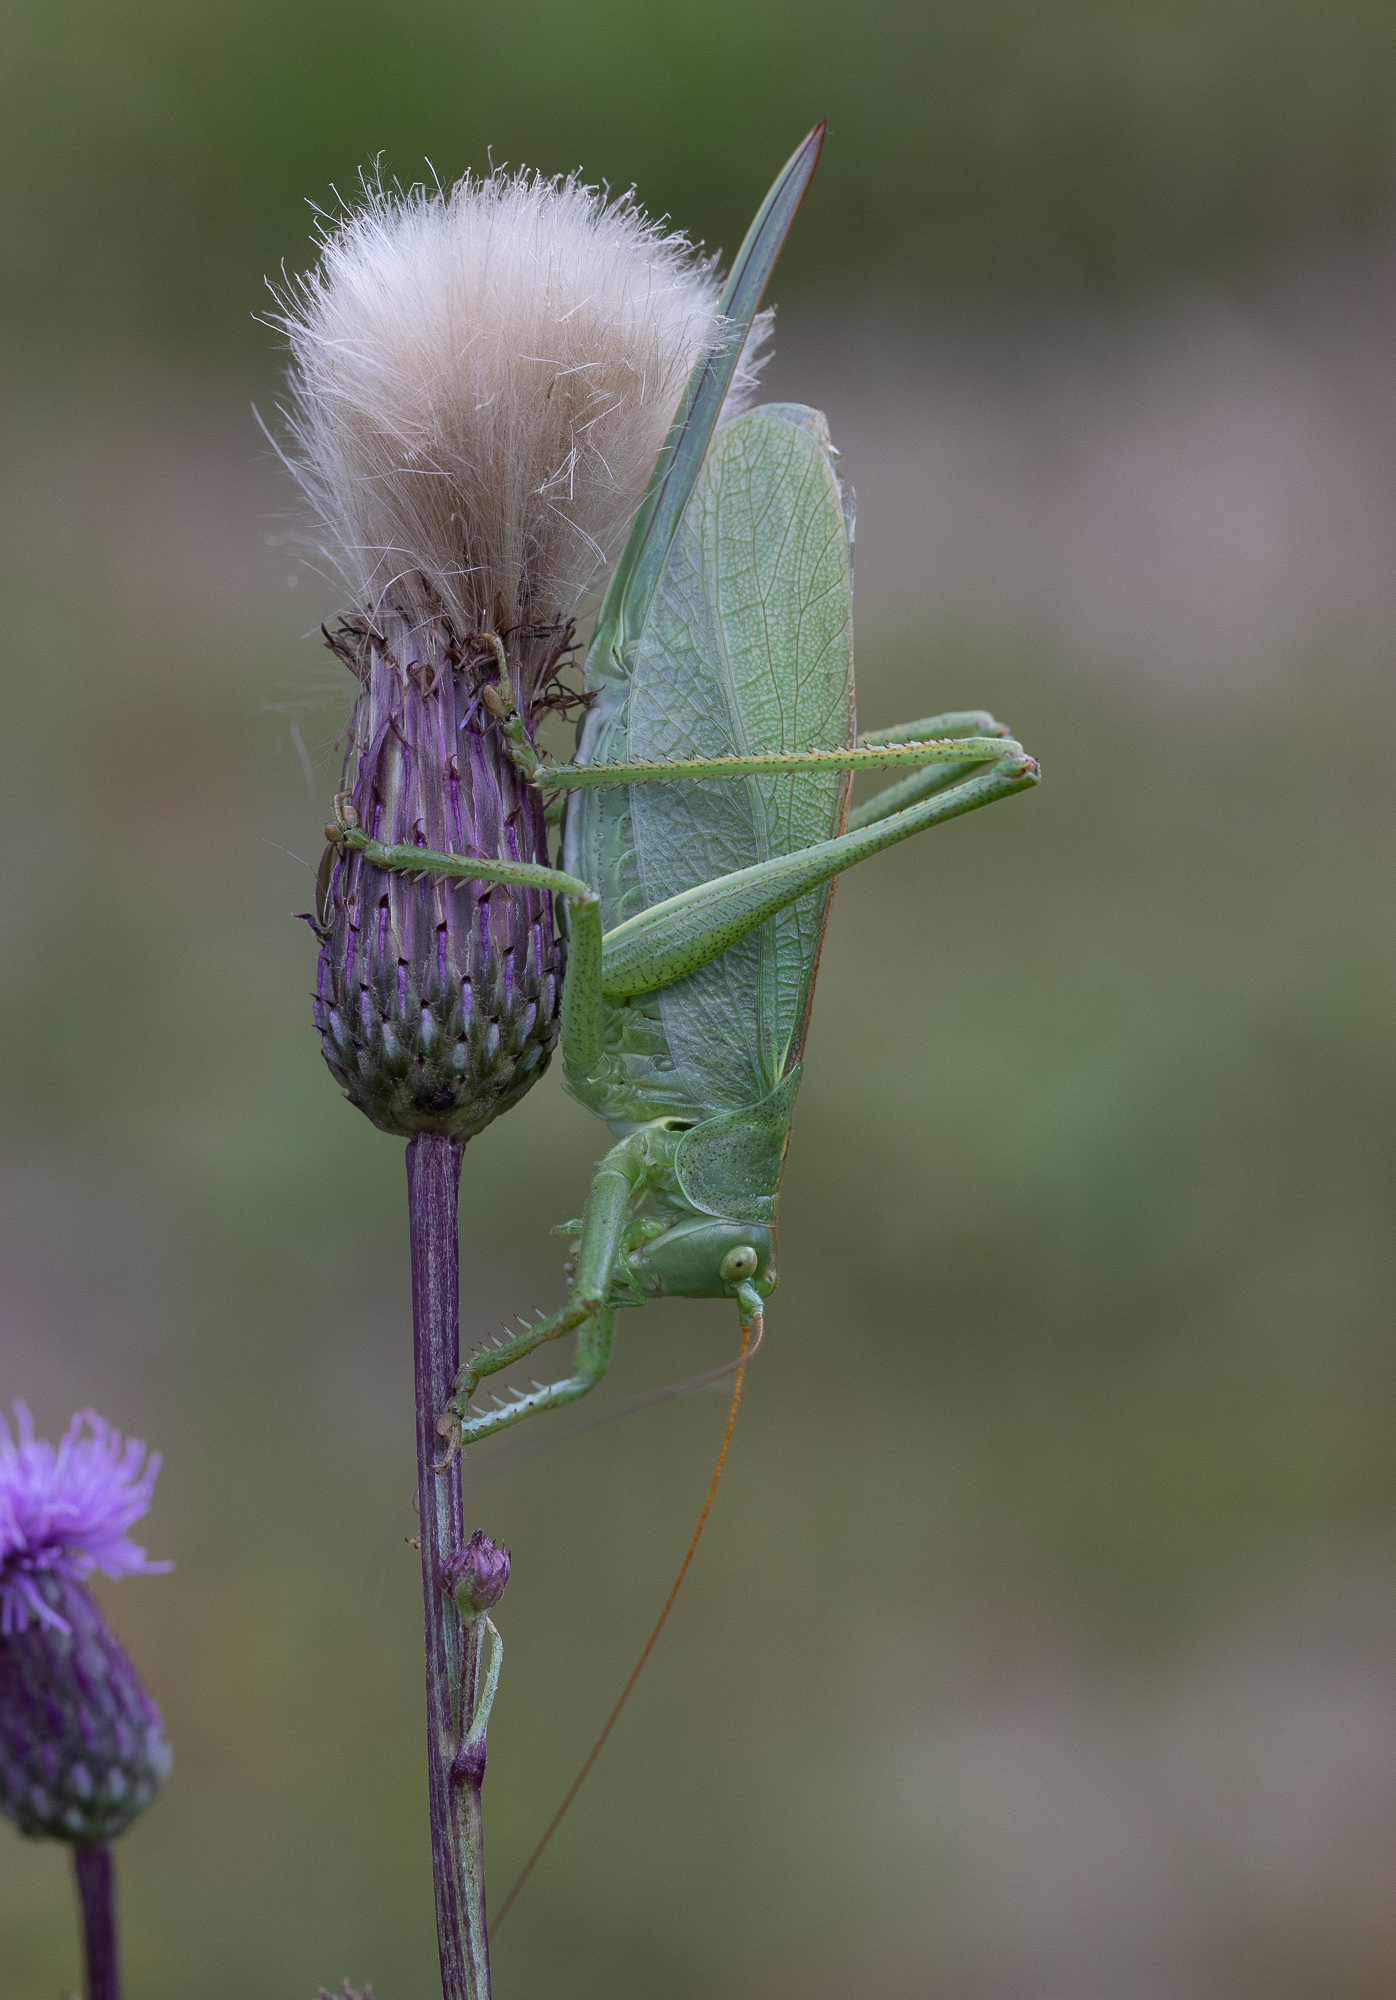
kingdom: Animalia
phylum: Arthropoda
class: Insecta
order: Orthoptera
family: Tettigoniidae
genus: Tettigonia
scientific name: Tettigonia cantans
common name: Upland green bush-cricket
